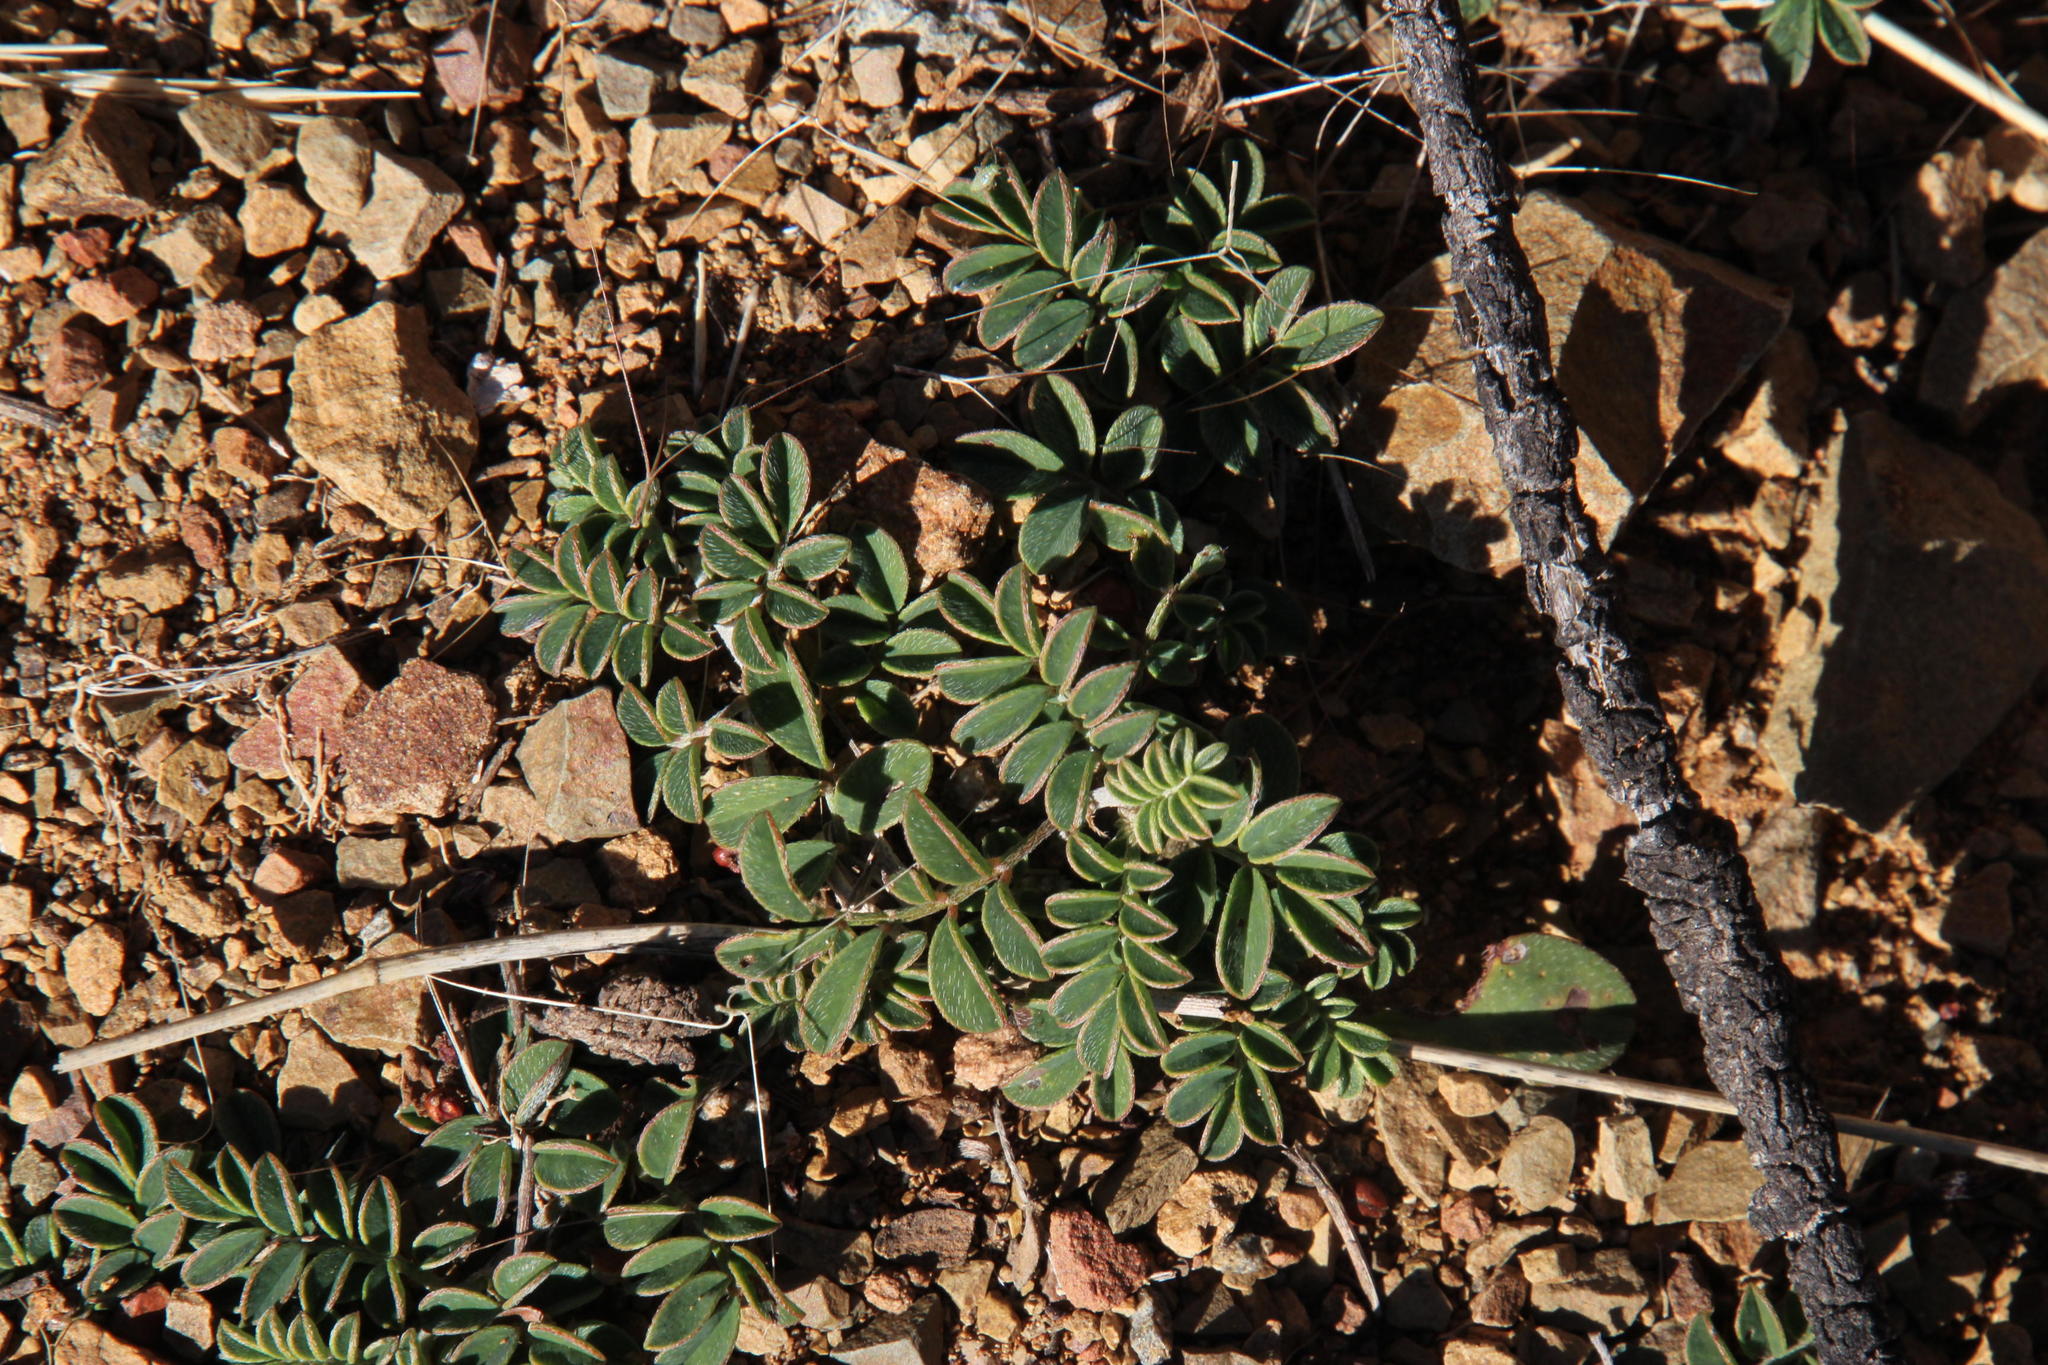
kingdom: Plantae
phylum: Tracheophyta
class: Magnoliopsida
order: Fabales
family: Fabaceae
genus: Indigofera
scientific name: Indigofera alternans
